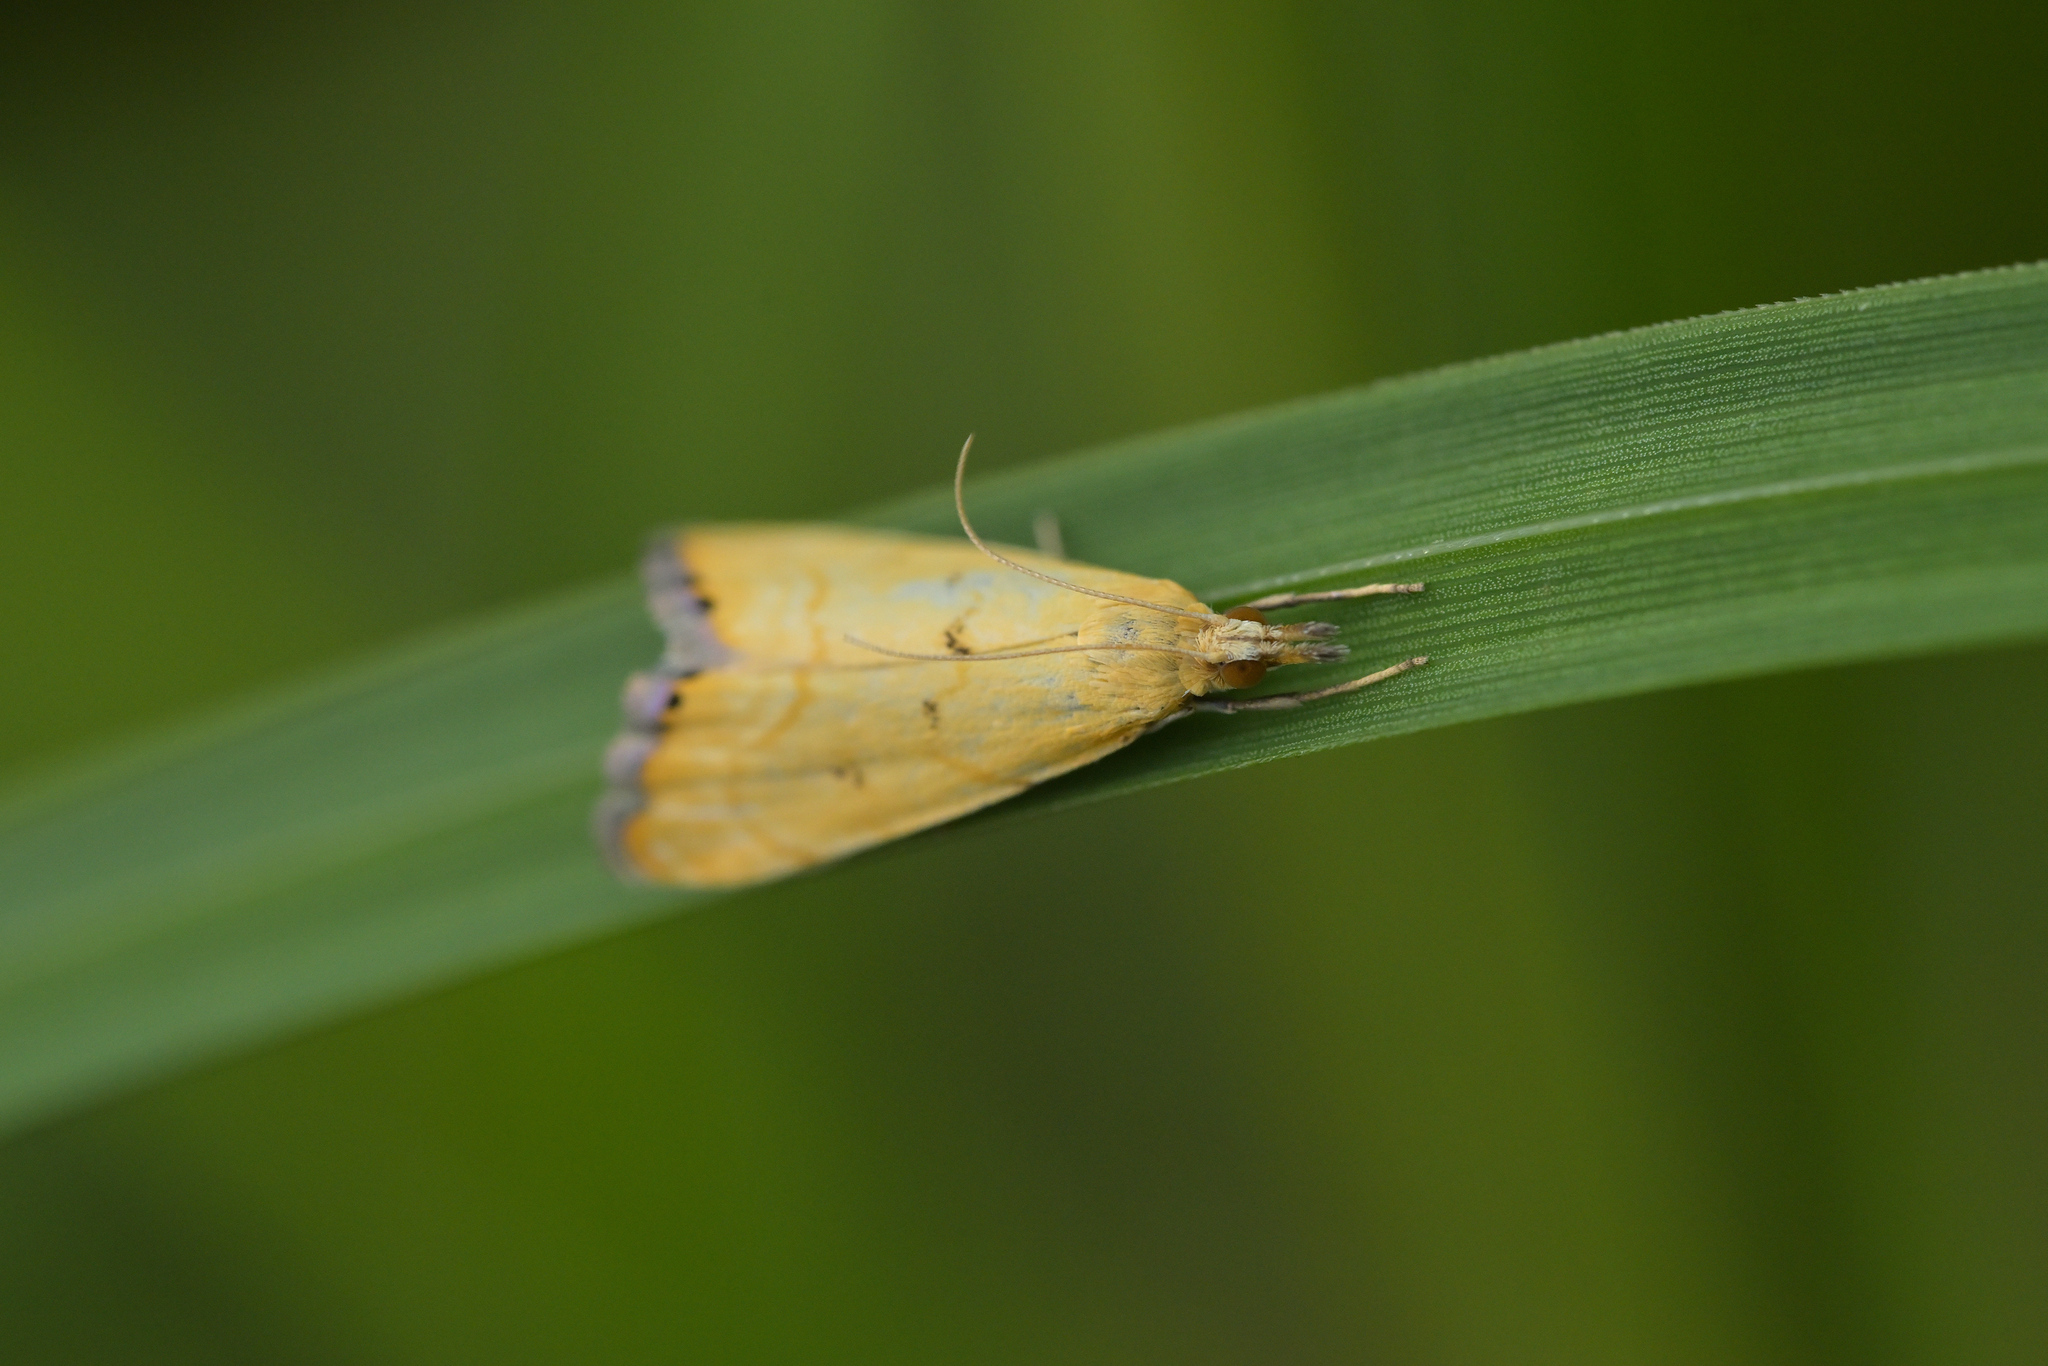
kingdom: Animalia
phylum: Arthropoda
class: Insecta
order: Lepidoptera
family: Crambidae
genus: Glaucocharis
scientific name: Glaucocharis holanthes
